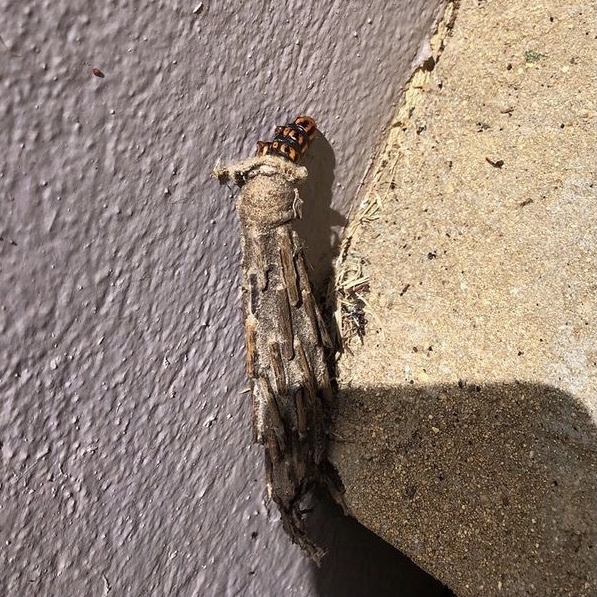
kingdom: Animalia
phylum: Arthropoda
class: Insecta
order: Lepidoptera
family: Psychidae
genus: Metura
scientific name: Metura elongatus
